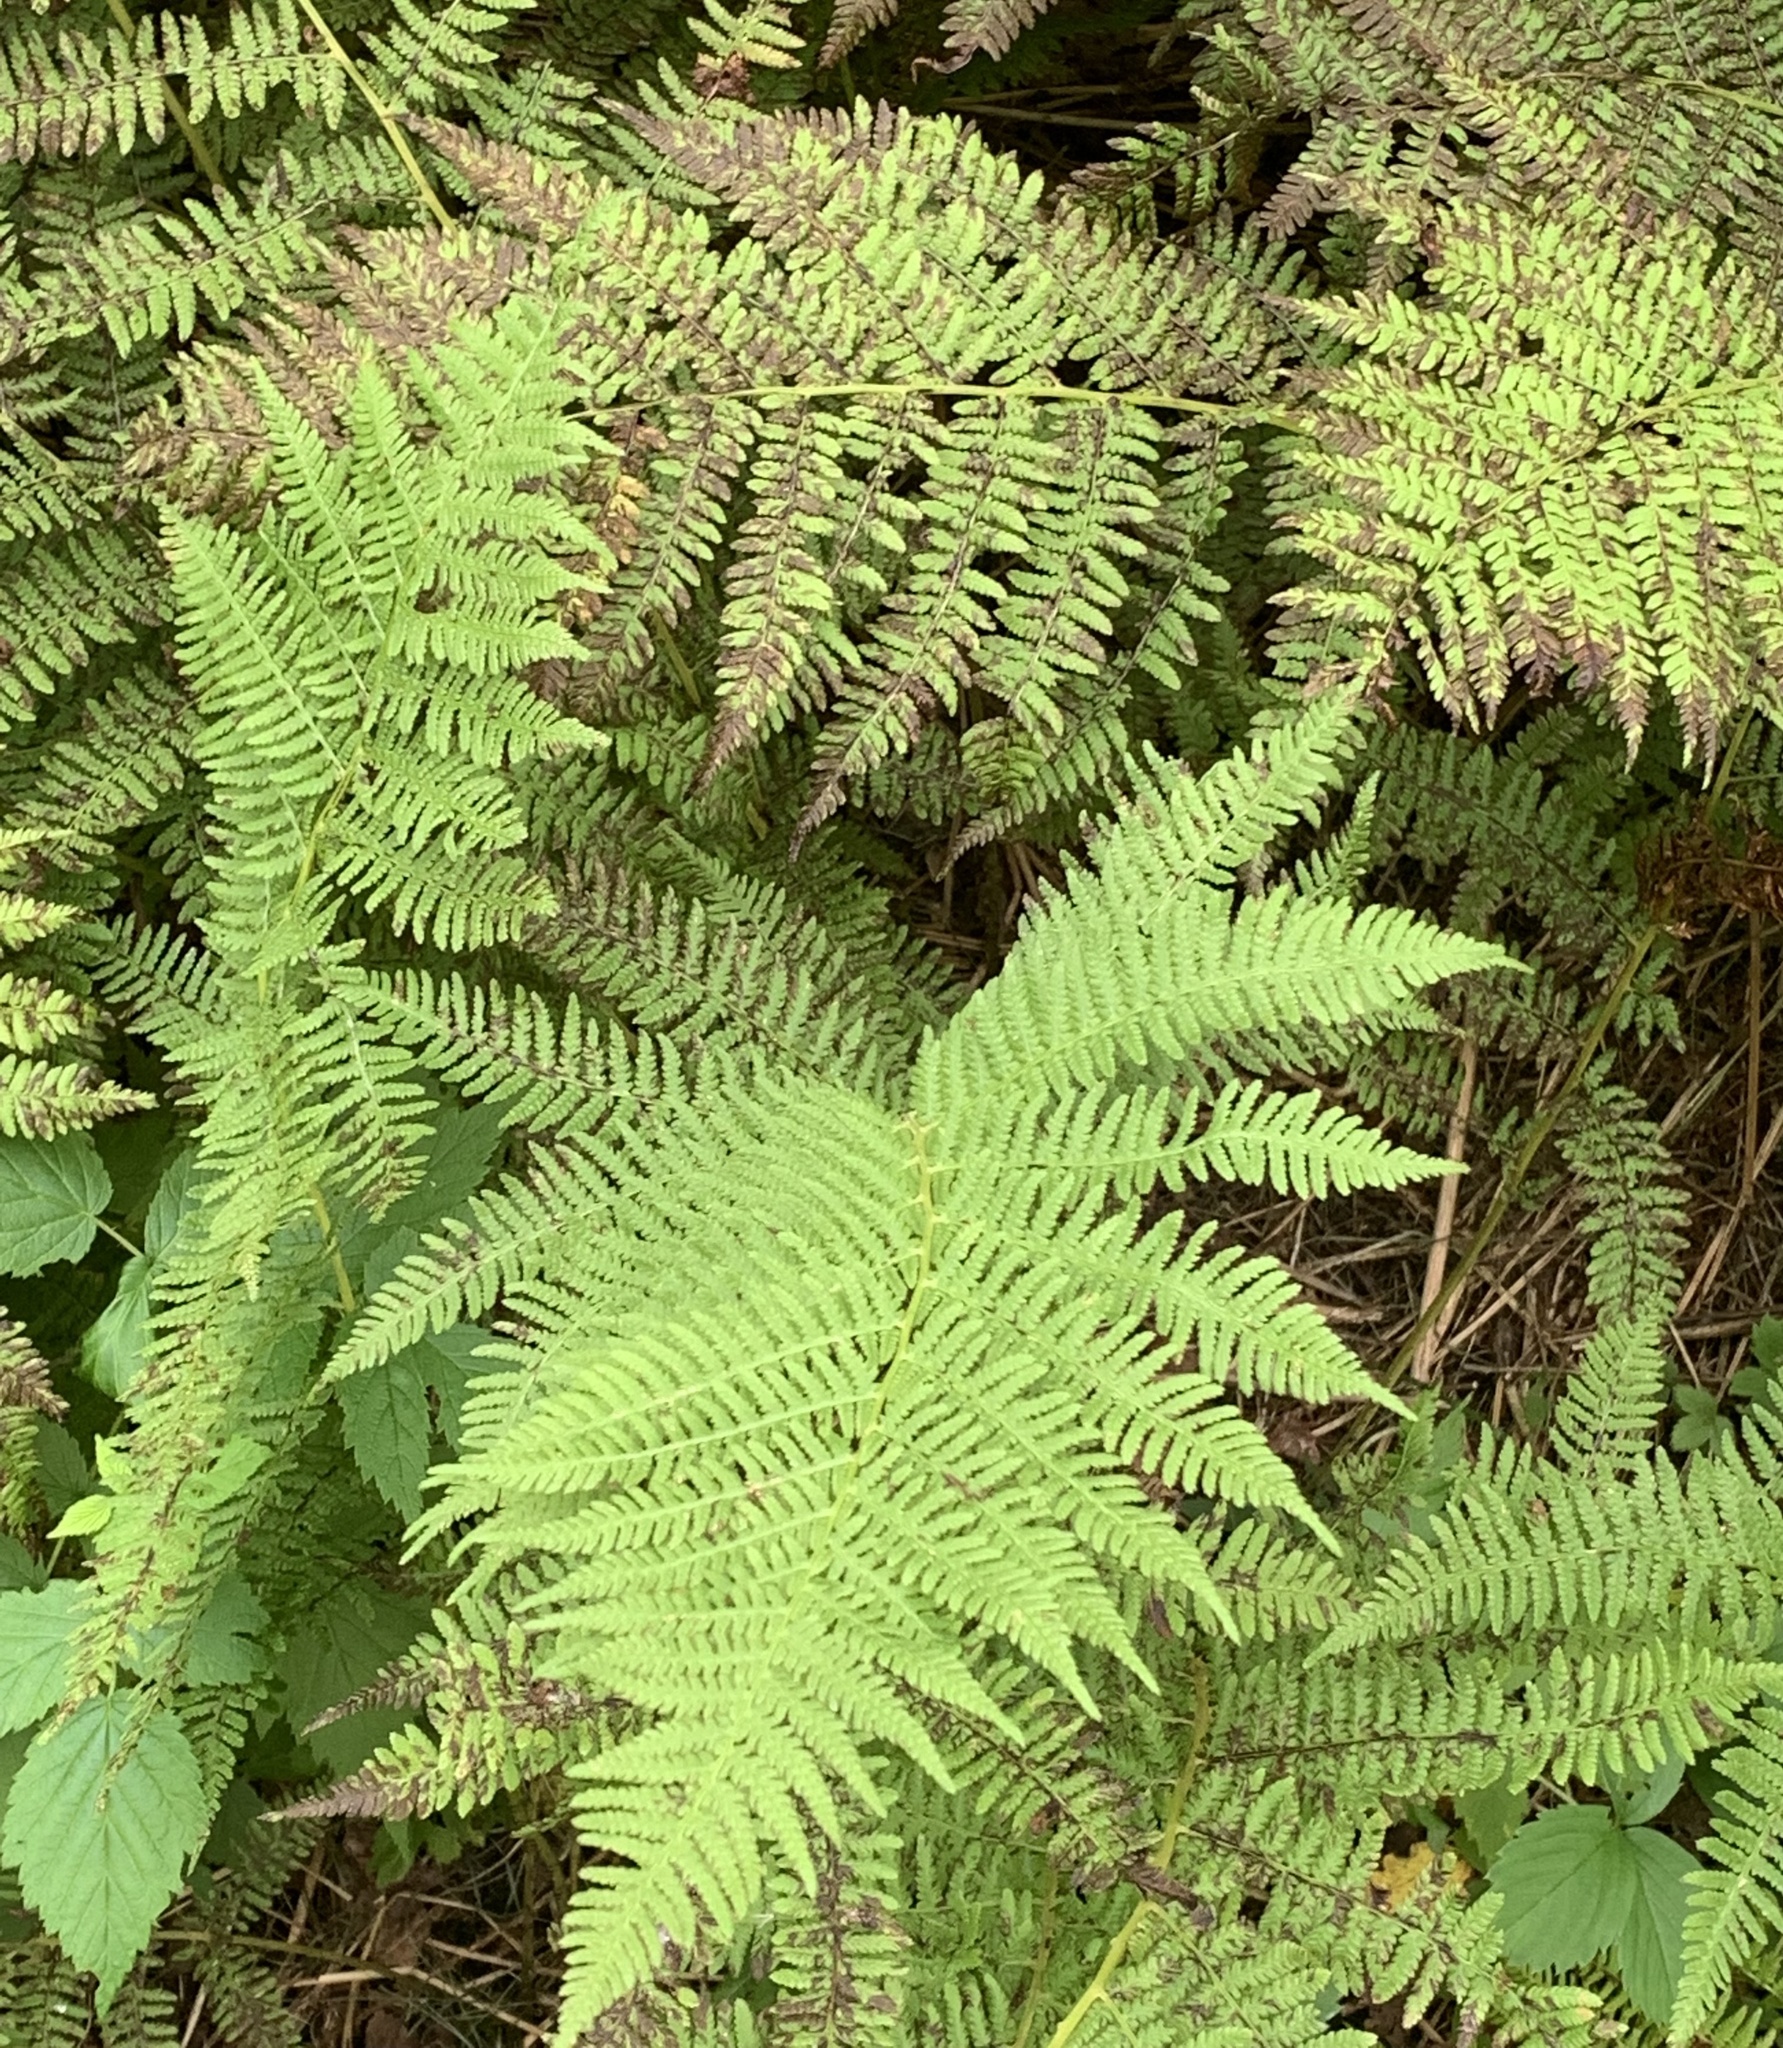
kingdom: Plantae
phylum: Tracheophyta
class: Polypodiopsida
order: Polypodiales
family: Athyriaceae
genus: Athyrium
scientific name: Athyrium angustum
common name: Northern lady fern
